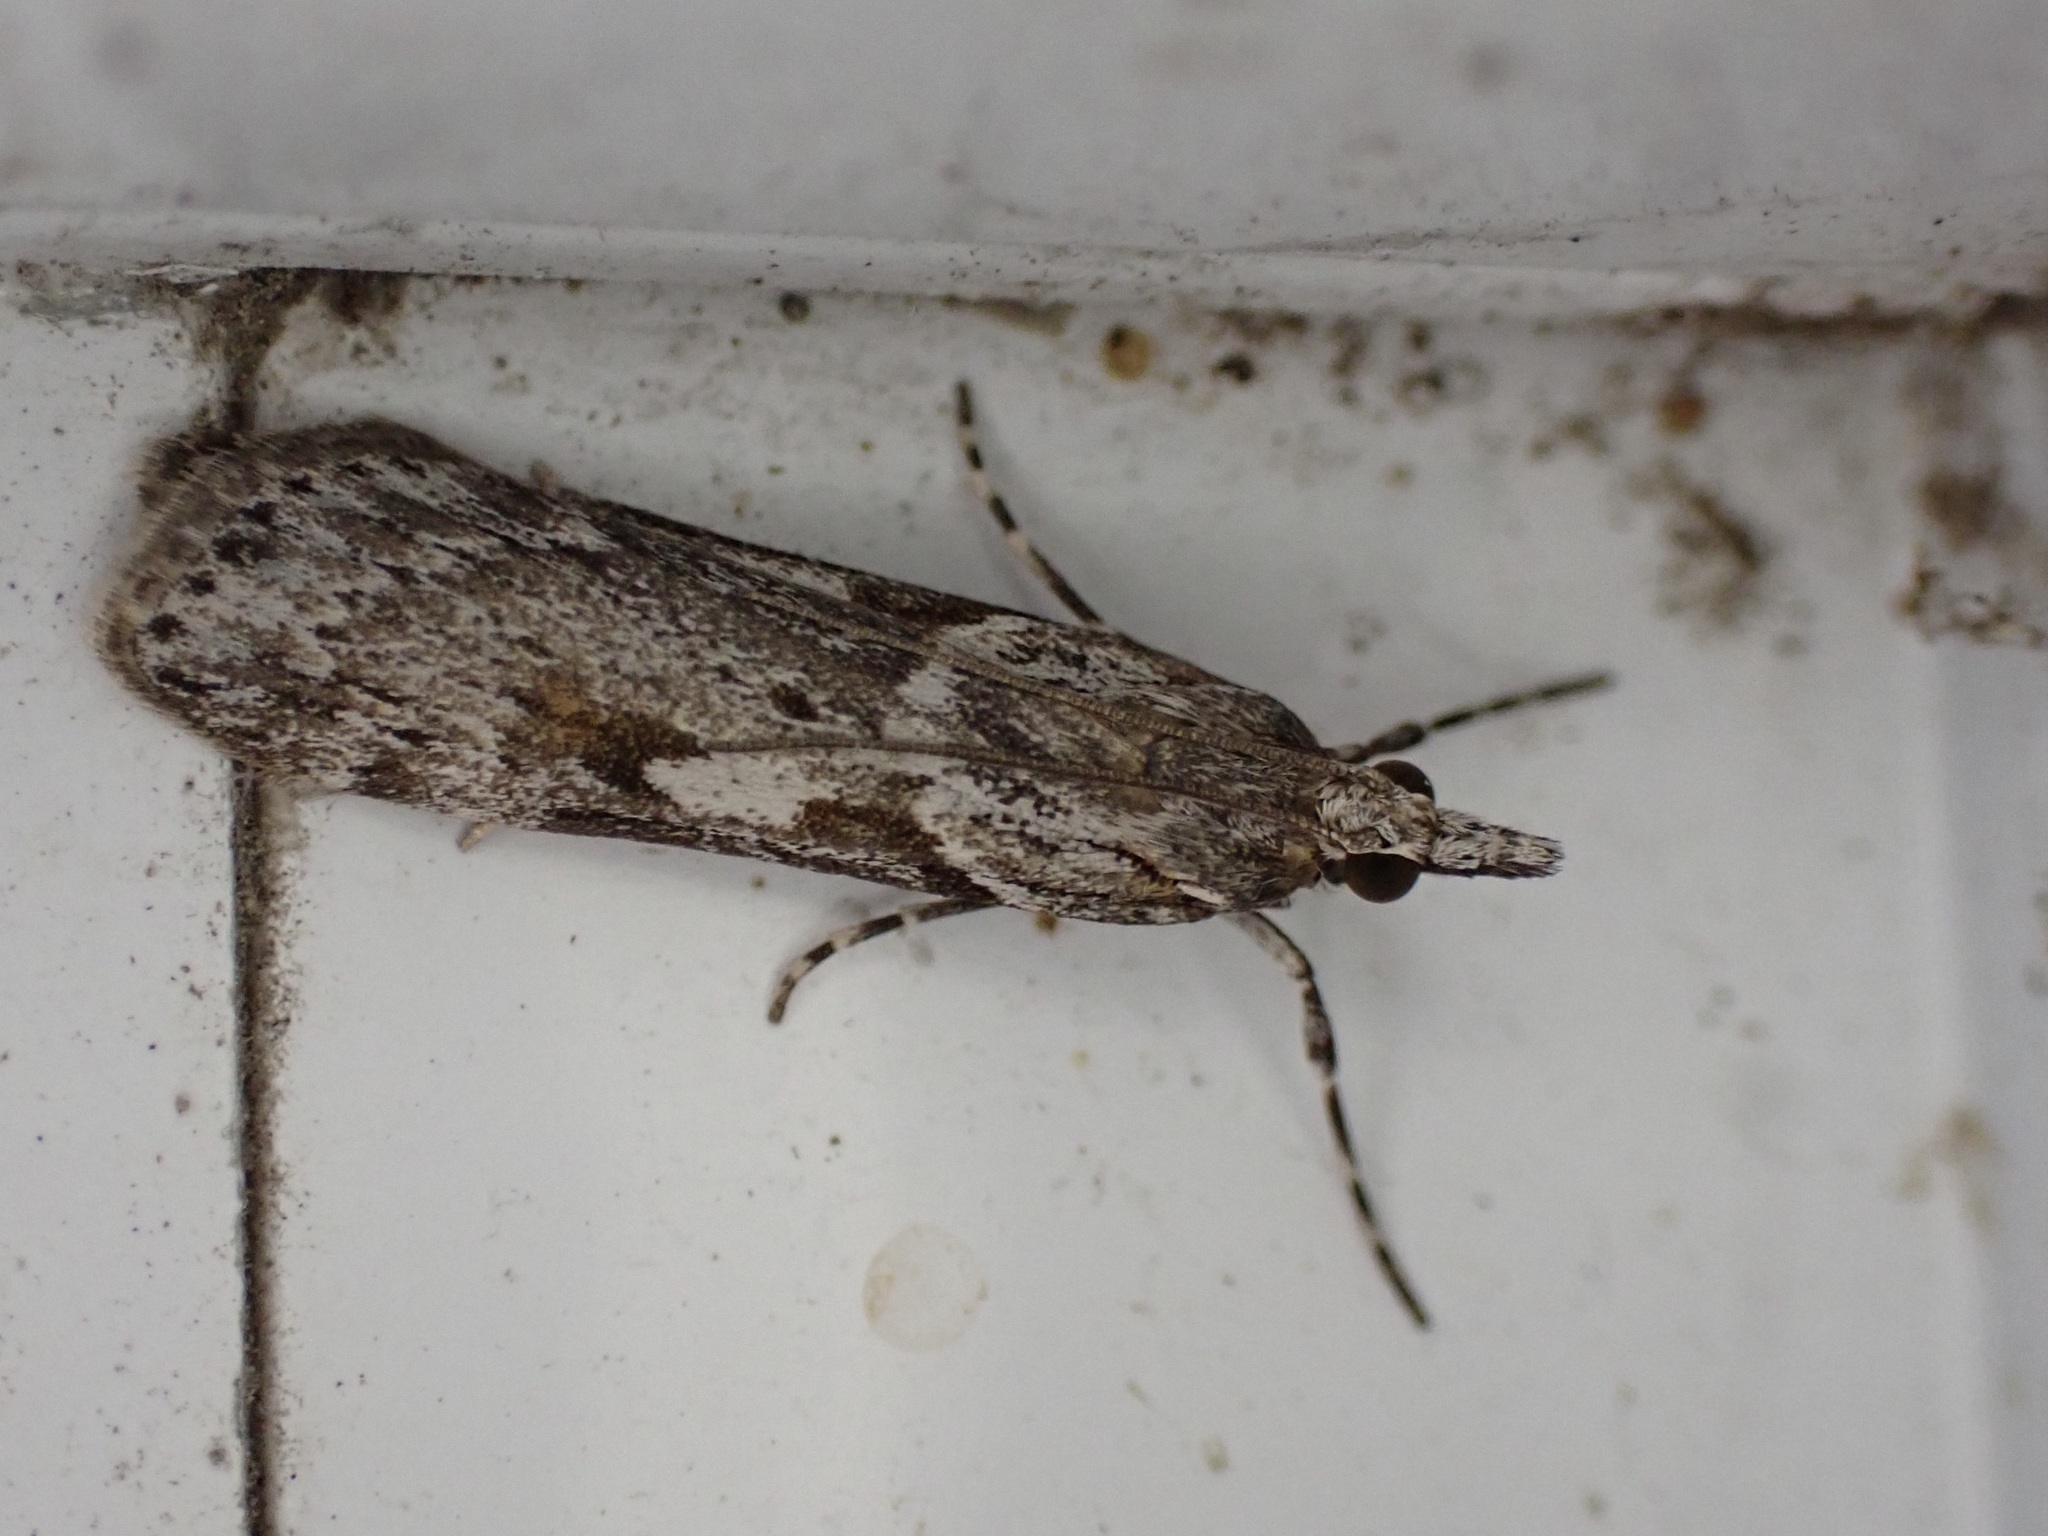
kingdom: Animalia
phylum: Arthropoda
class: Insecta
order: Lepidoptera
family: Crambidae
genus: Scoparia
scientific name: Scoparia halopis
